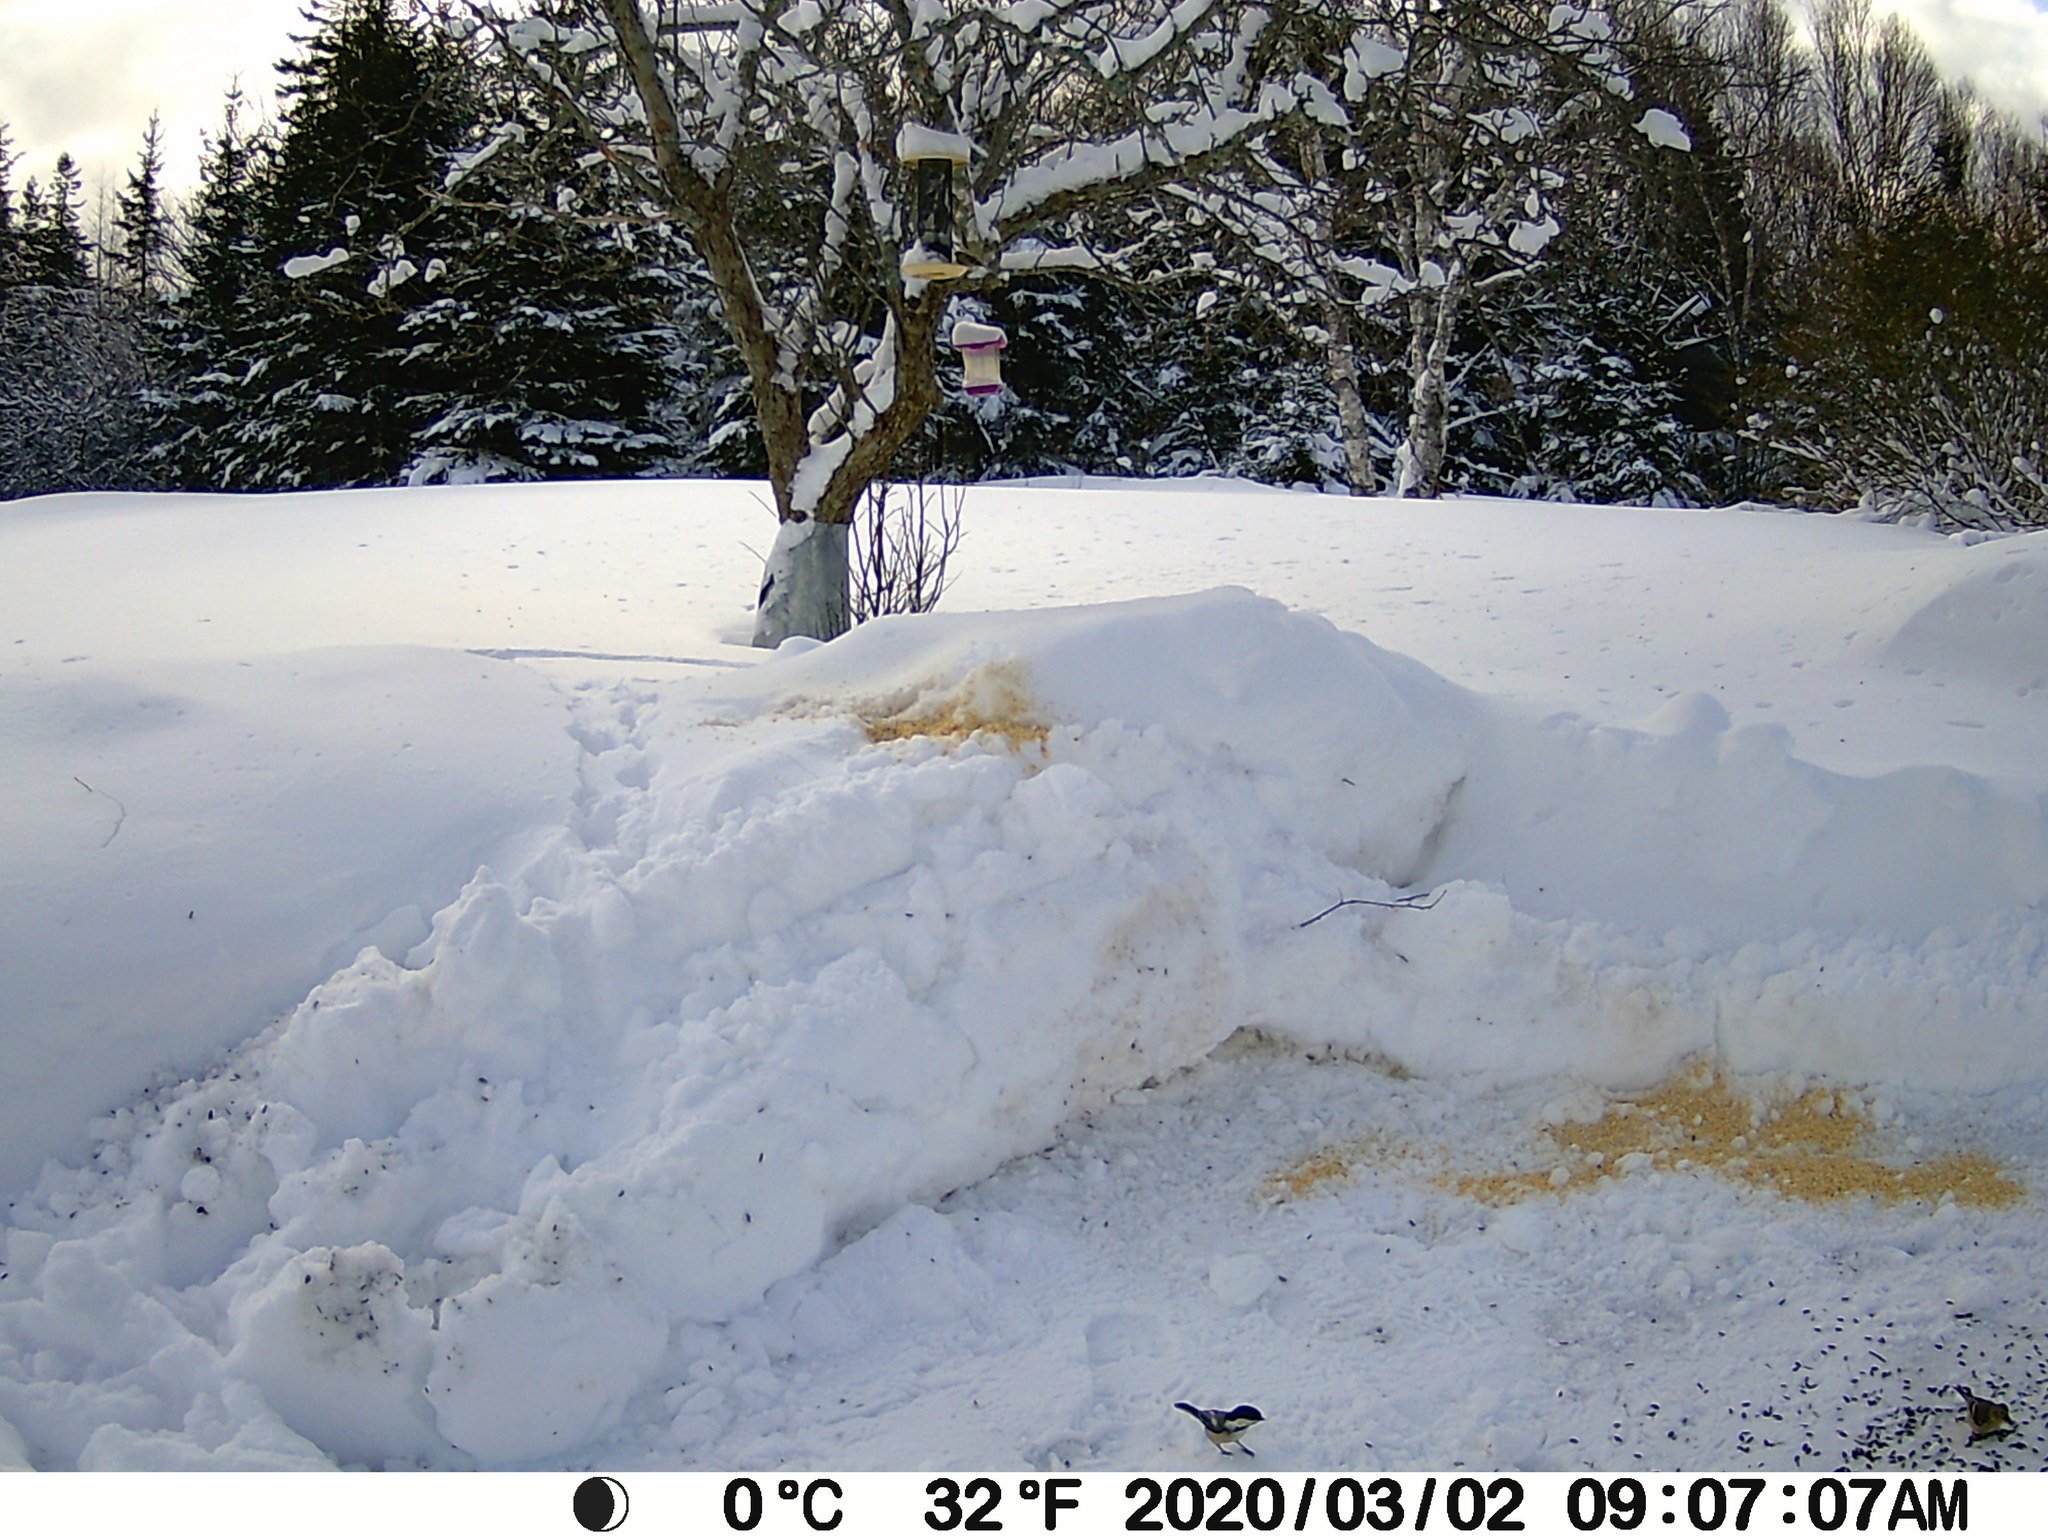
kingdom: Animalia
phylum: Chordata
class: Aves
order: Passeriformes
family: Paridae
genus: Poecile
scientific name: Poecile atricapillus
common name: Black-capped chickadee
